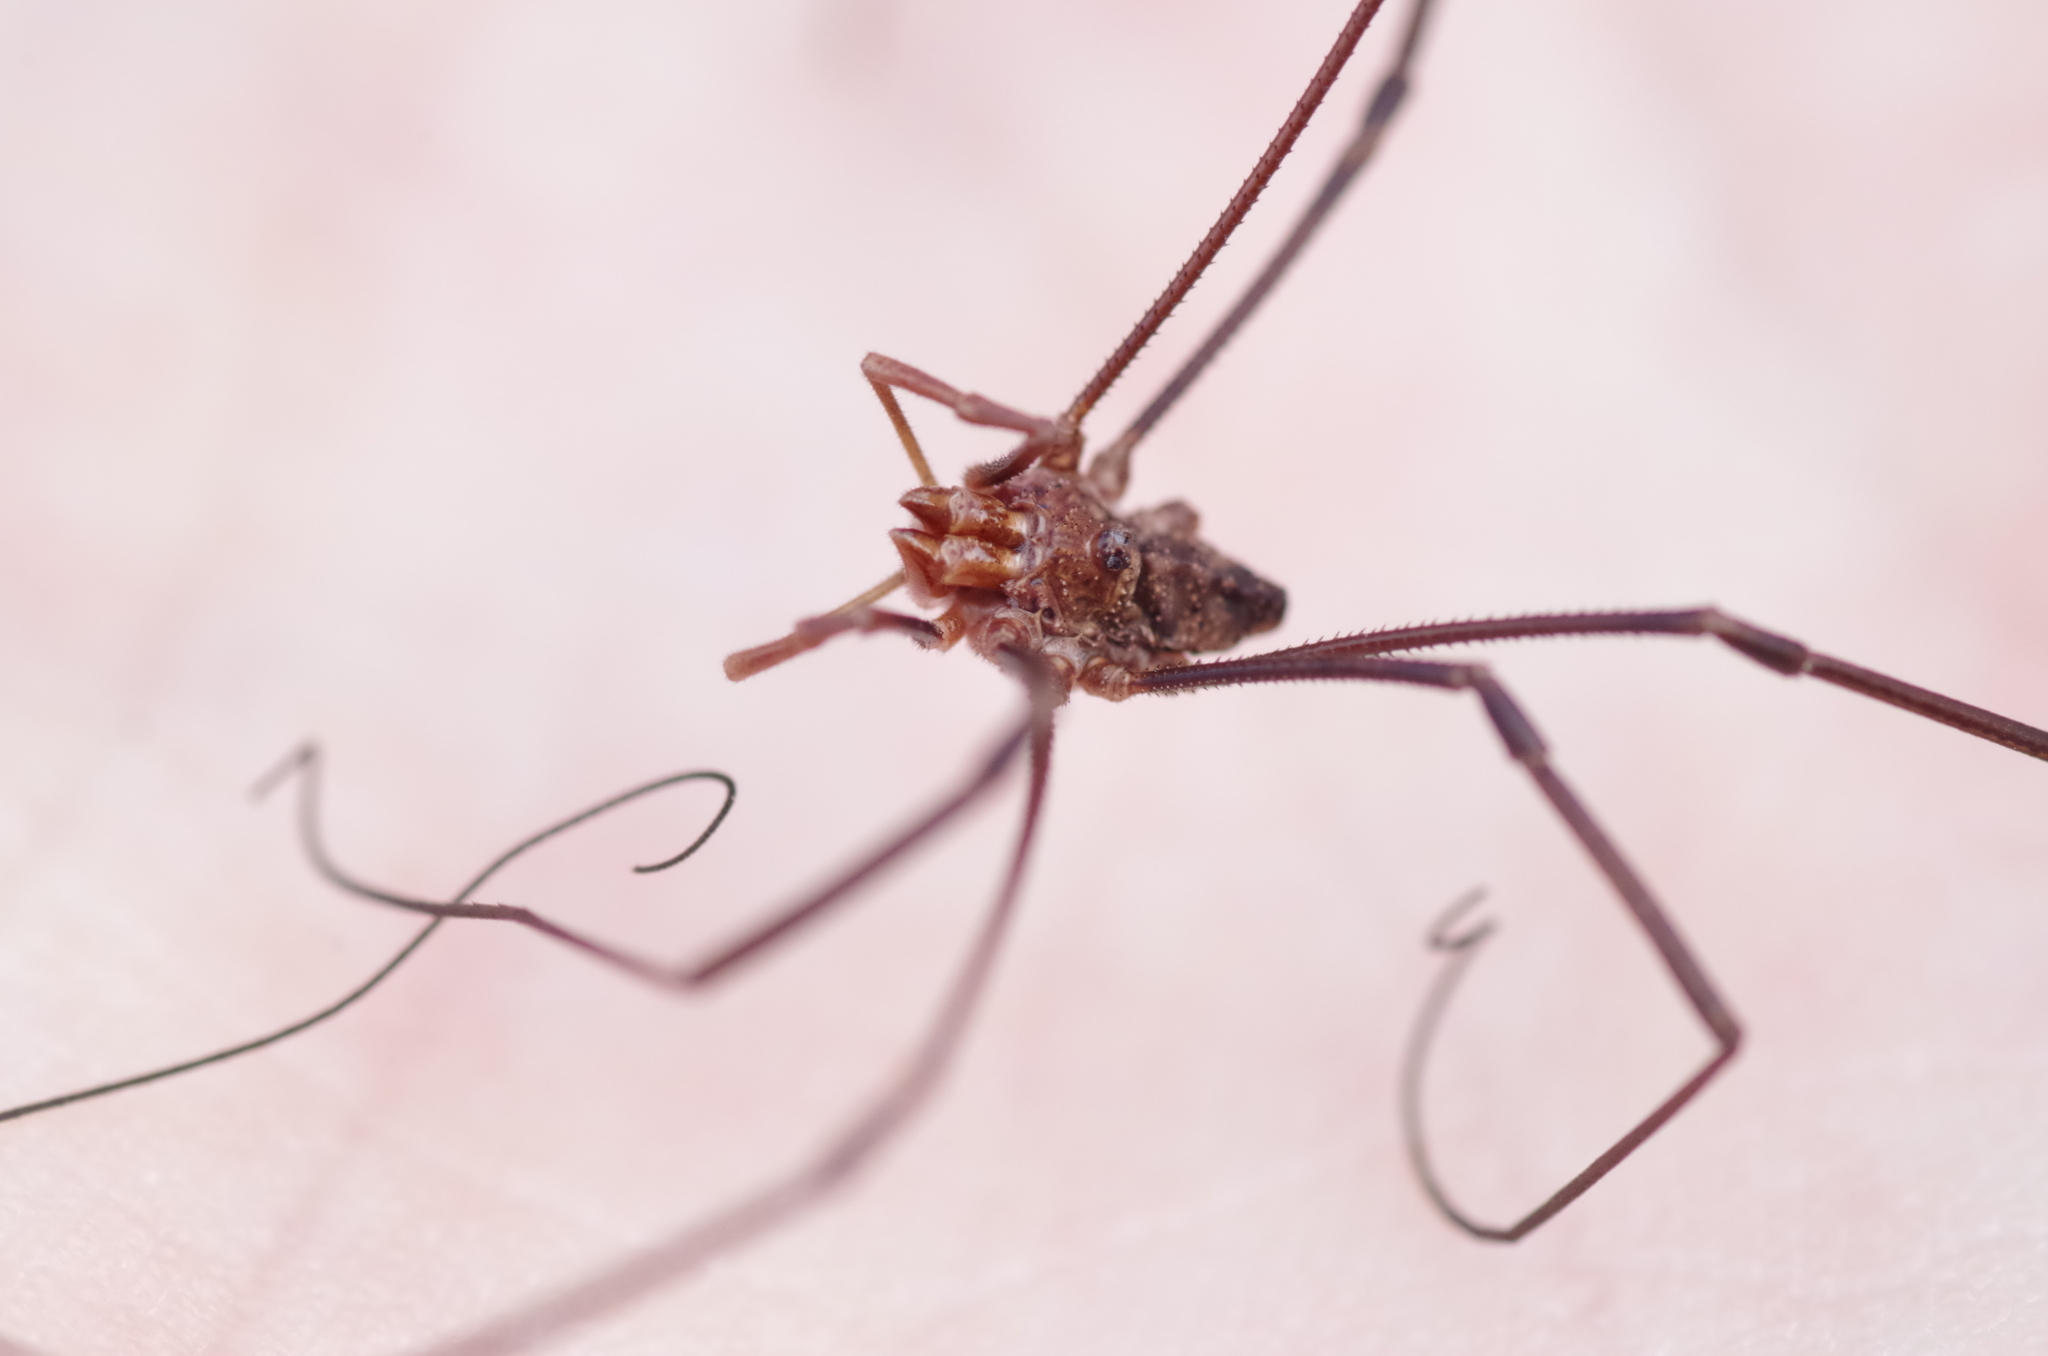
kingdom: Animalia
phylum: Arthropoda
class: Arachnida
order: Opiliones
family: Phalangiidae
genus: Phalangium
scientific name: Phalangium opilio
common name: Daddy longleg
